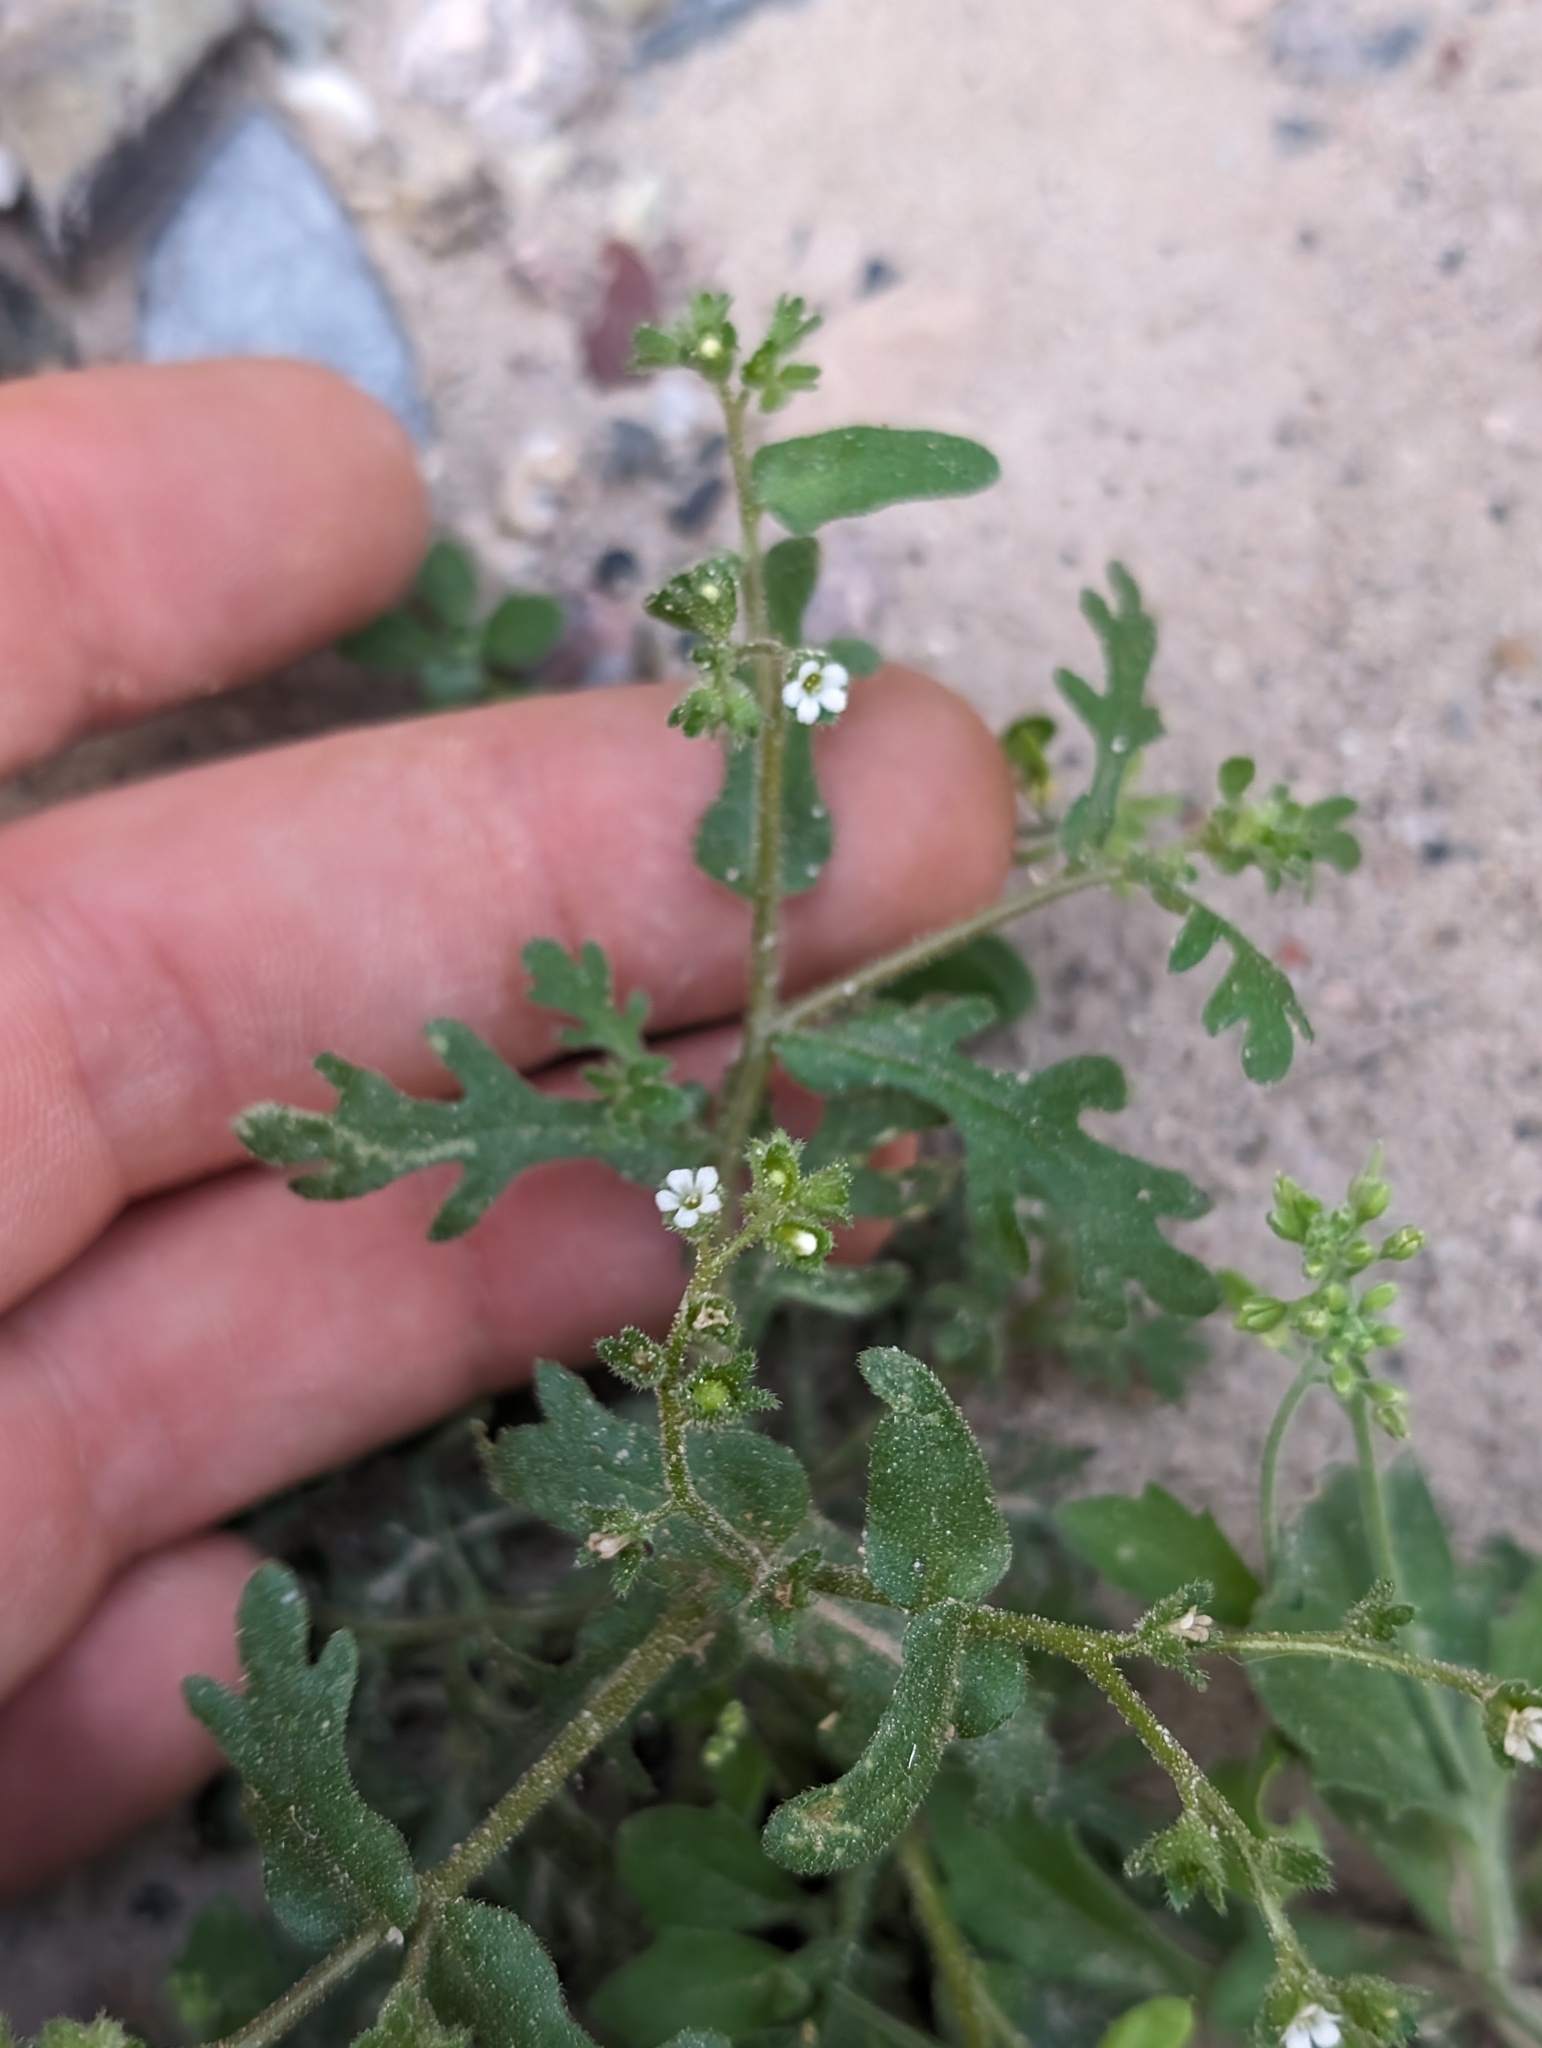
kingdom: Plantae
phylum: Tracheophyta
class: Magnoliopsida
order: Boraginales
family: Hydrophyllaceae
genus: Eucrypta
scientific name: Eucrypta micrantha
